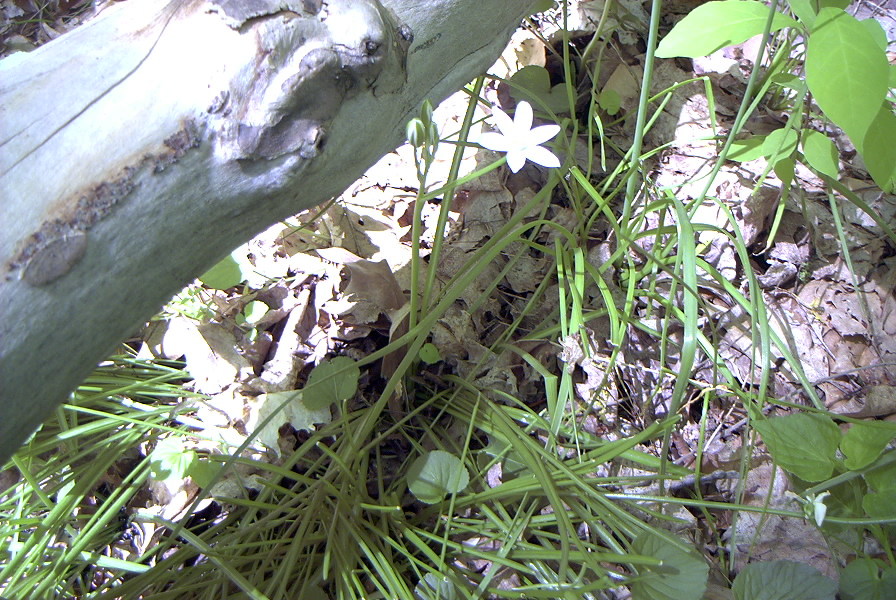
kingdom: Plantae
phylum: Tracheophyta
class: Liliopsida
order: Asparagales
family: Asparagaceae
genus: Ornithogalum
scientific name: Ornithogalum umbellatum
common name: Garden star-of-bethlehem
